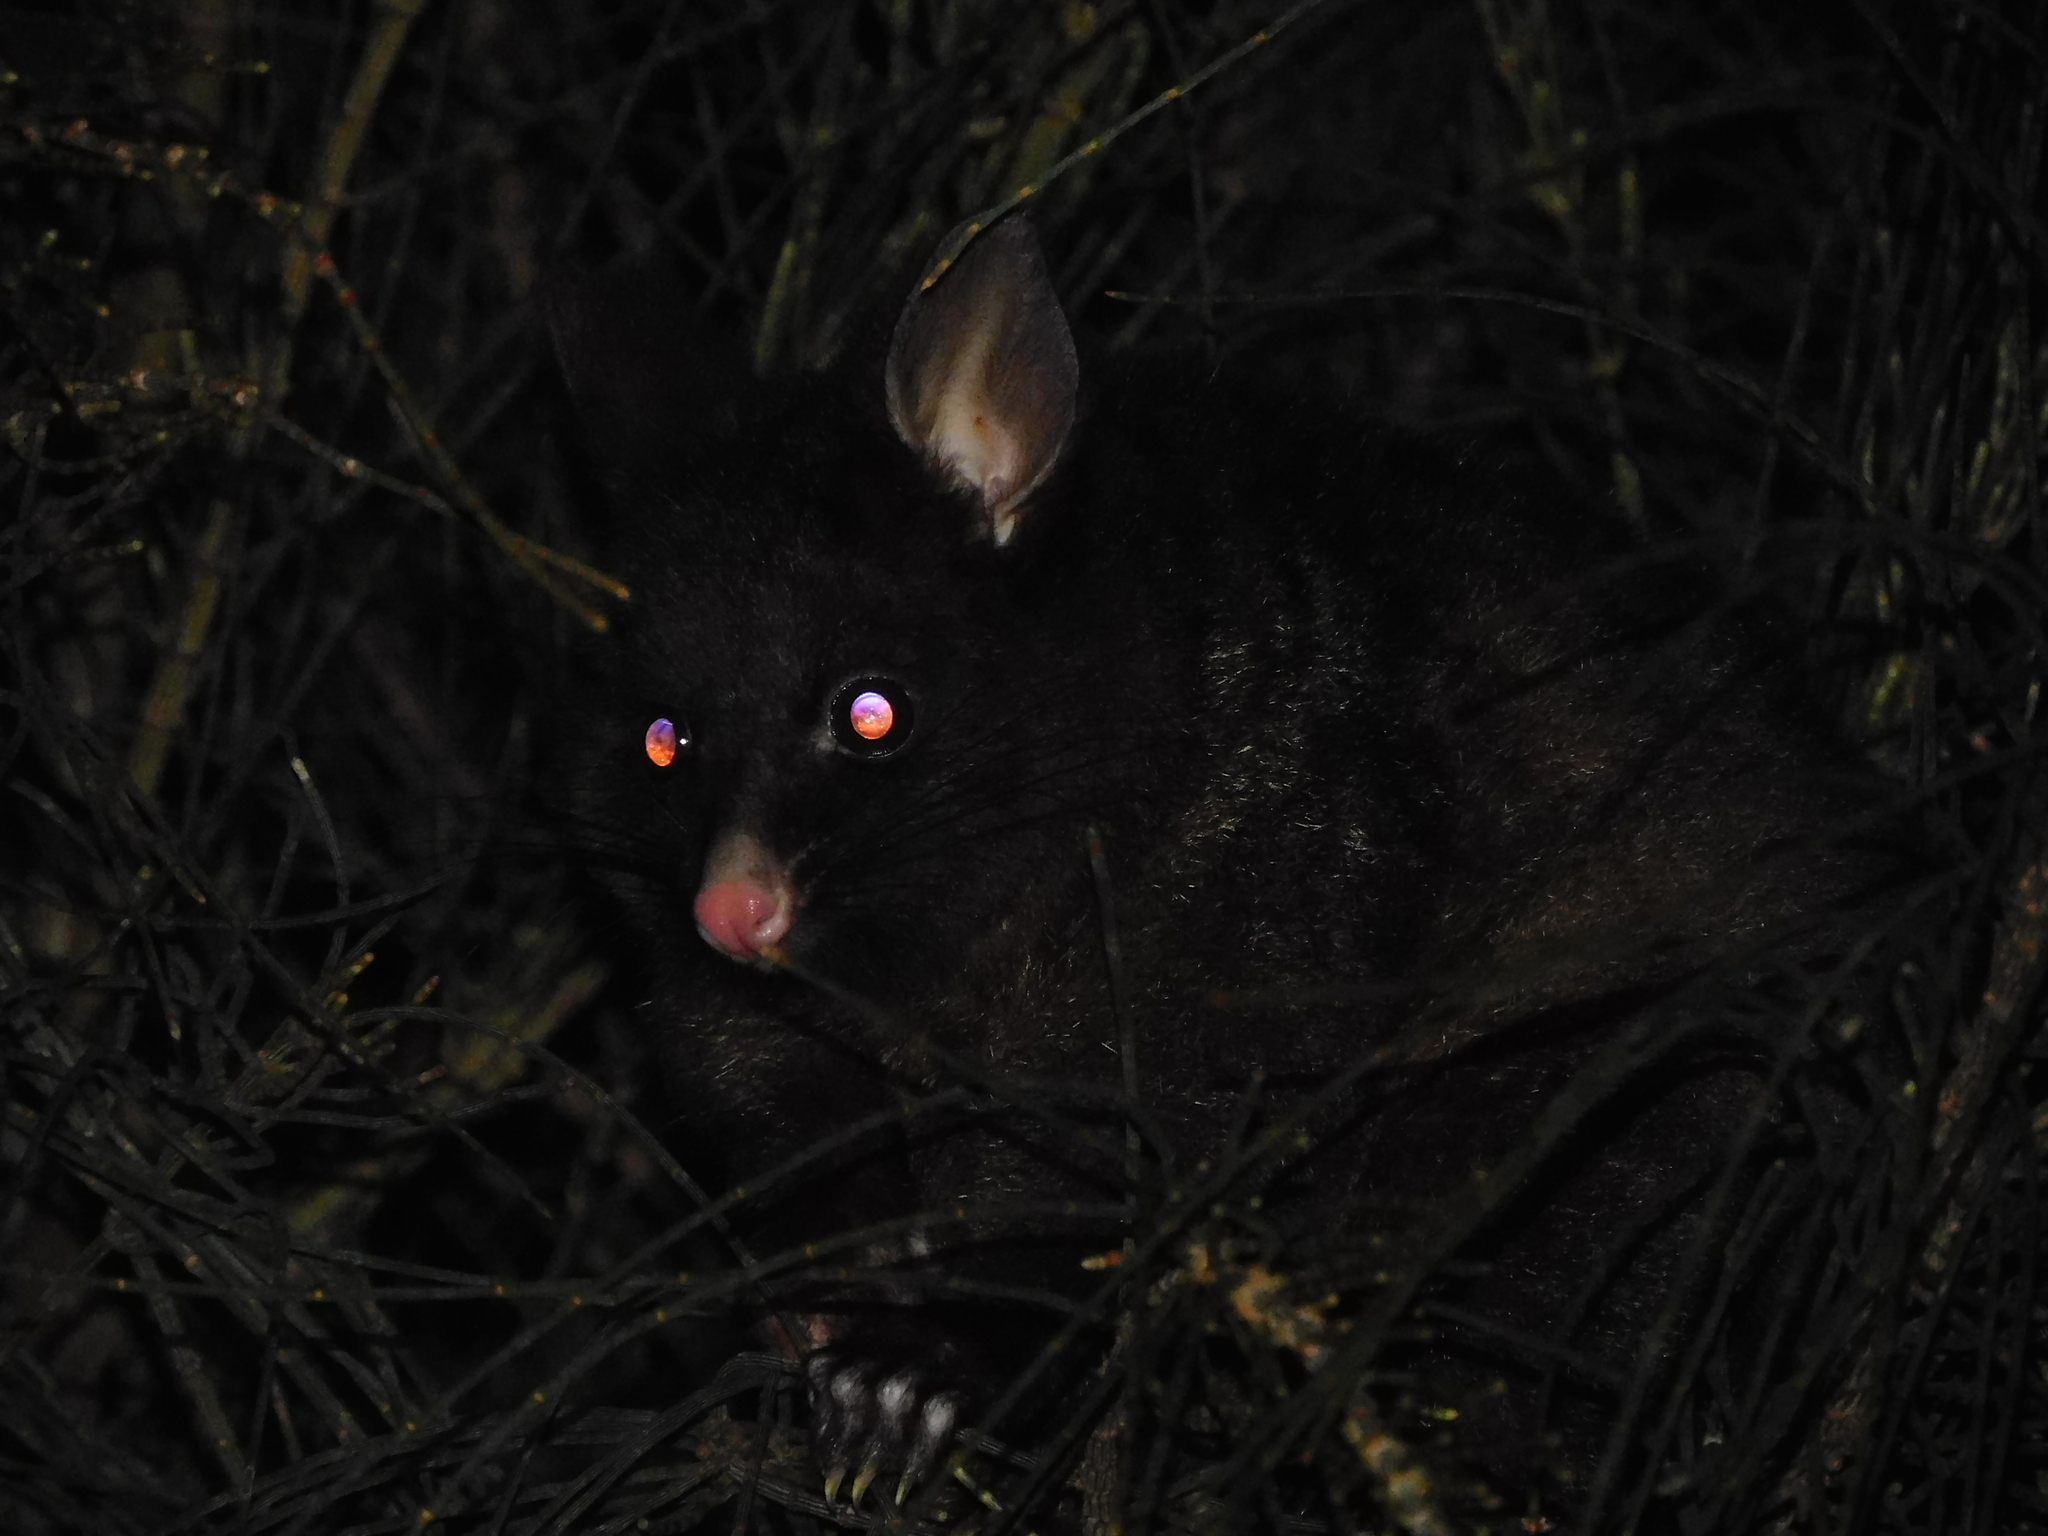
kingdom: Animalia
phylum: Chordata
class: Mammalia
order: Diprotodontia
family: Phalangeridae
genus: Trichosurus
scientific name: Trichosurus vulpecula
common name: Common brushtail
